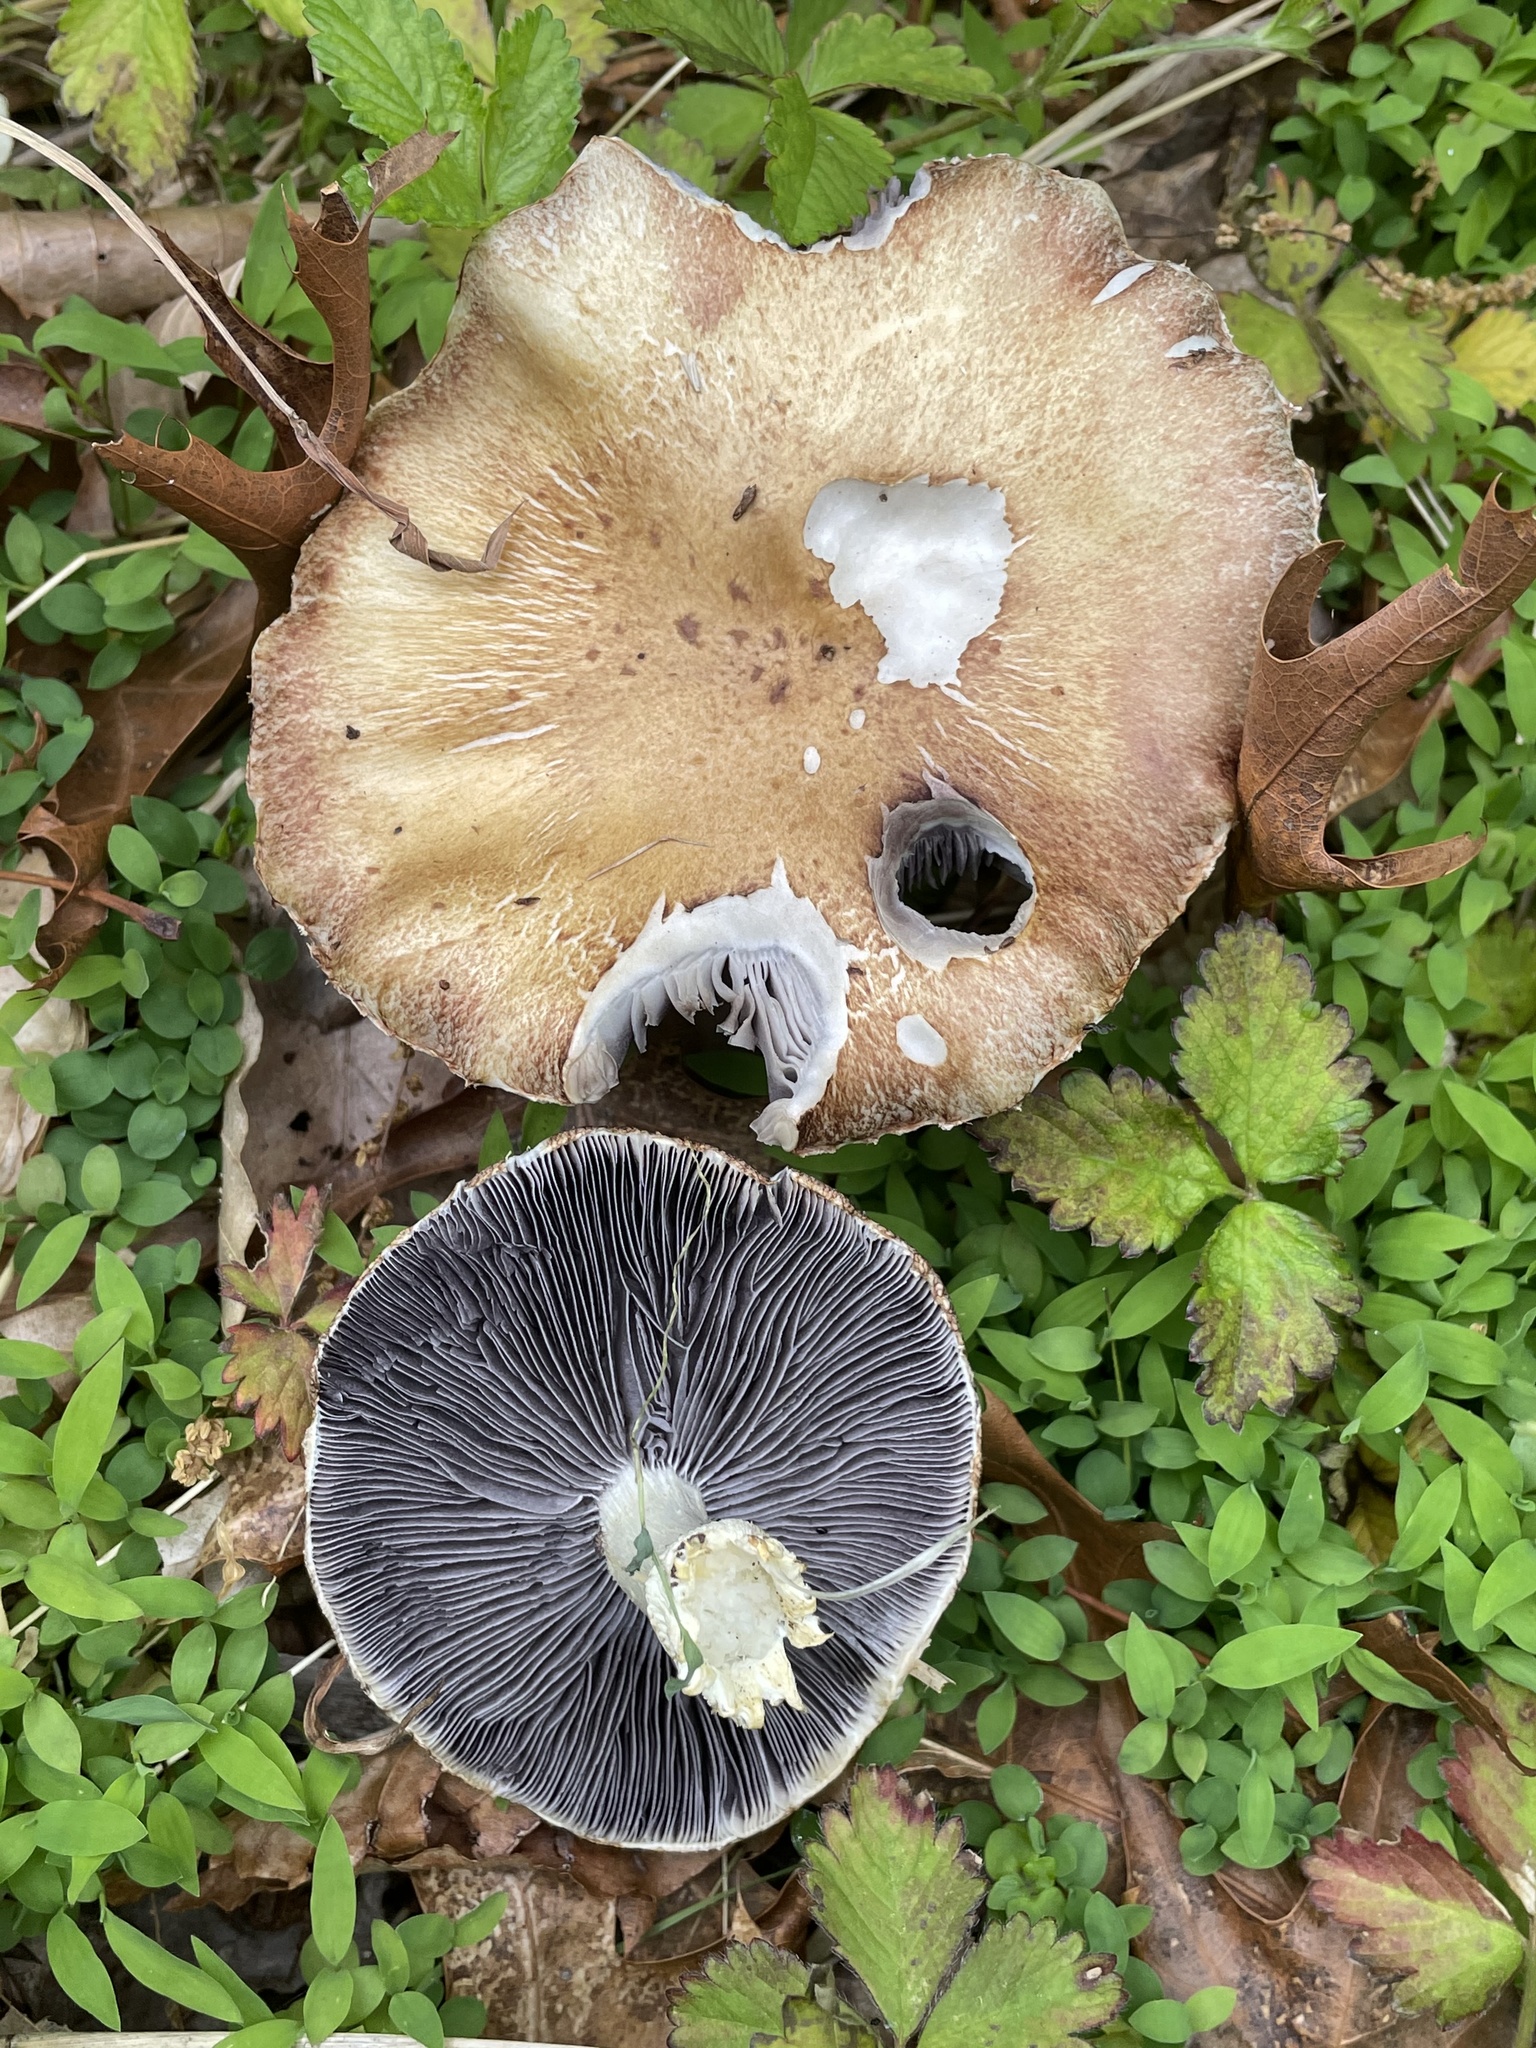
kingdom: Fungi
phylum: Basidiomycota
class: Agaricomycetes
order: Agaricales
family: Strophariaceae
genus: Stropharia
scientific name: Stropharia rugosoannulata
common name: Wine roundhead
